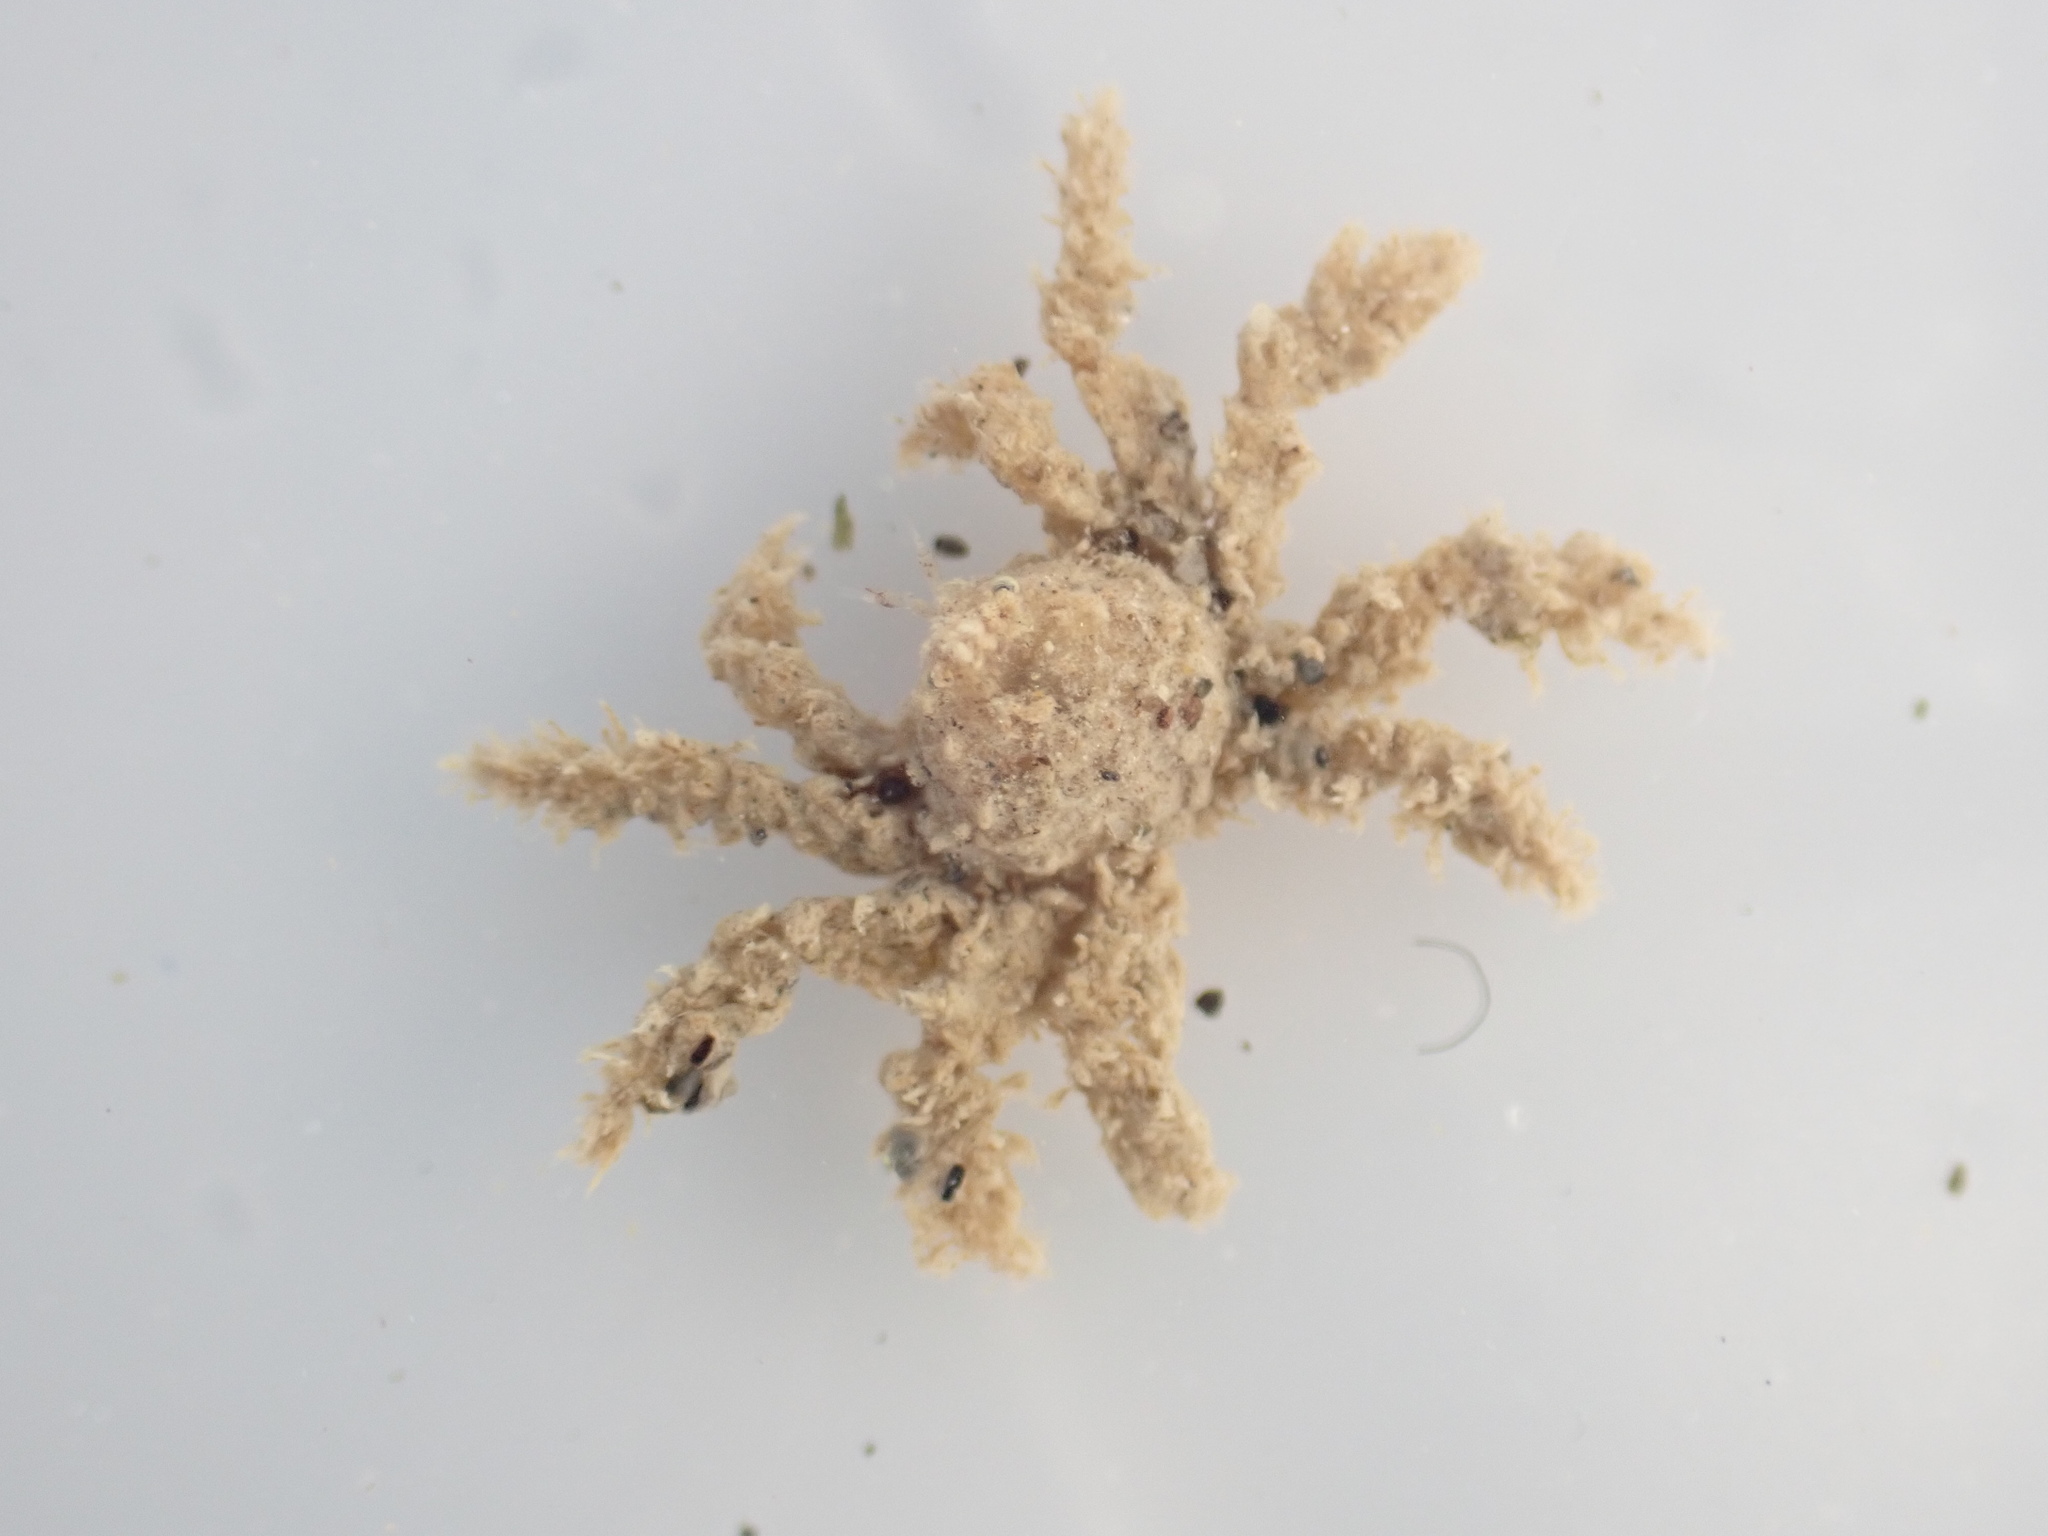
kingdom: Animalia
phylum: Arthropoda
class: Malacostraca
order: Decapoda
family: Hymenosomatidae
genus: Neohymenicus
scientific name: Neohymenicus pubescens
